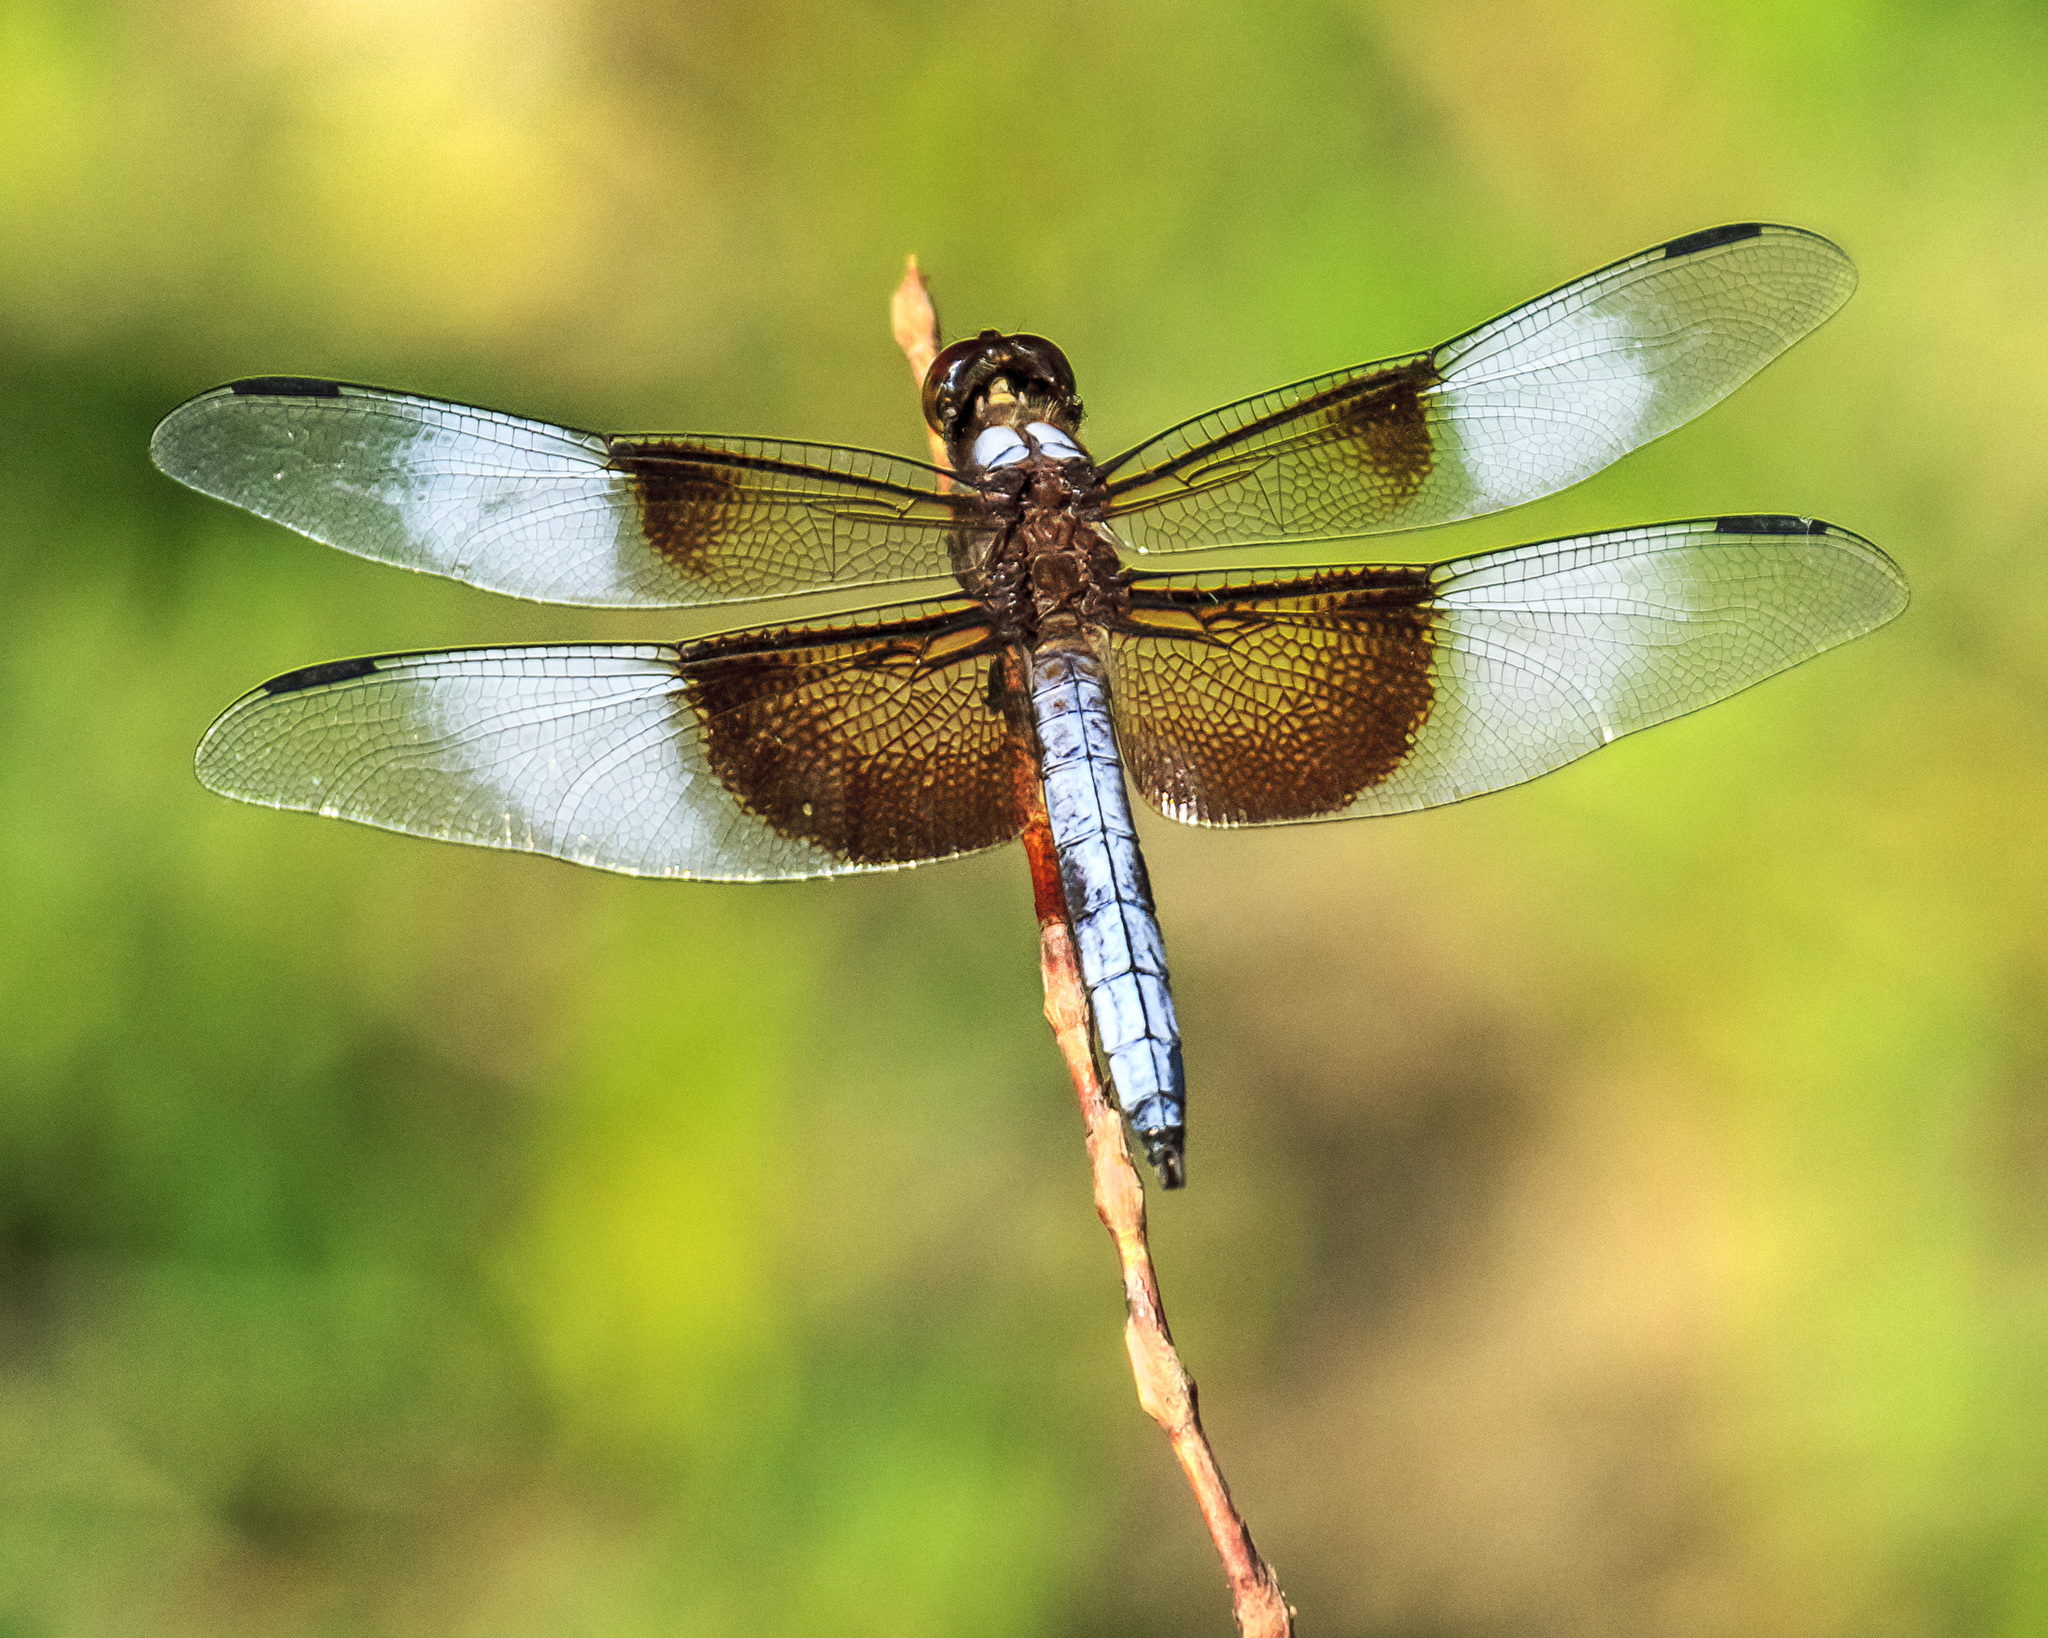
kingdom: Animalia
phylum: Arthropoda
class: Insecta
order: Odonata
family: Libellulidae
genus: Libellula
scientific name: Libellula luctuosa
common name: Widow skimmer
